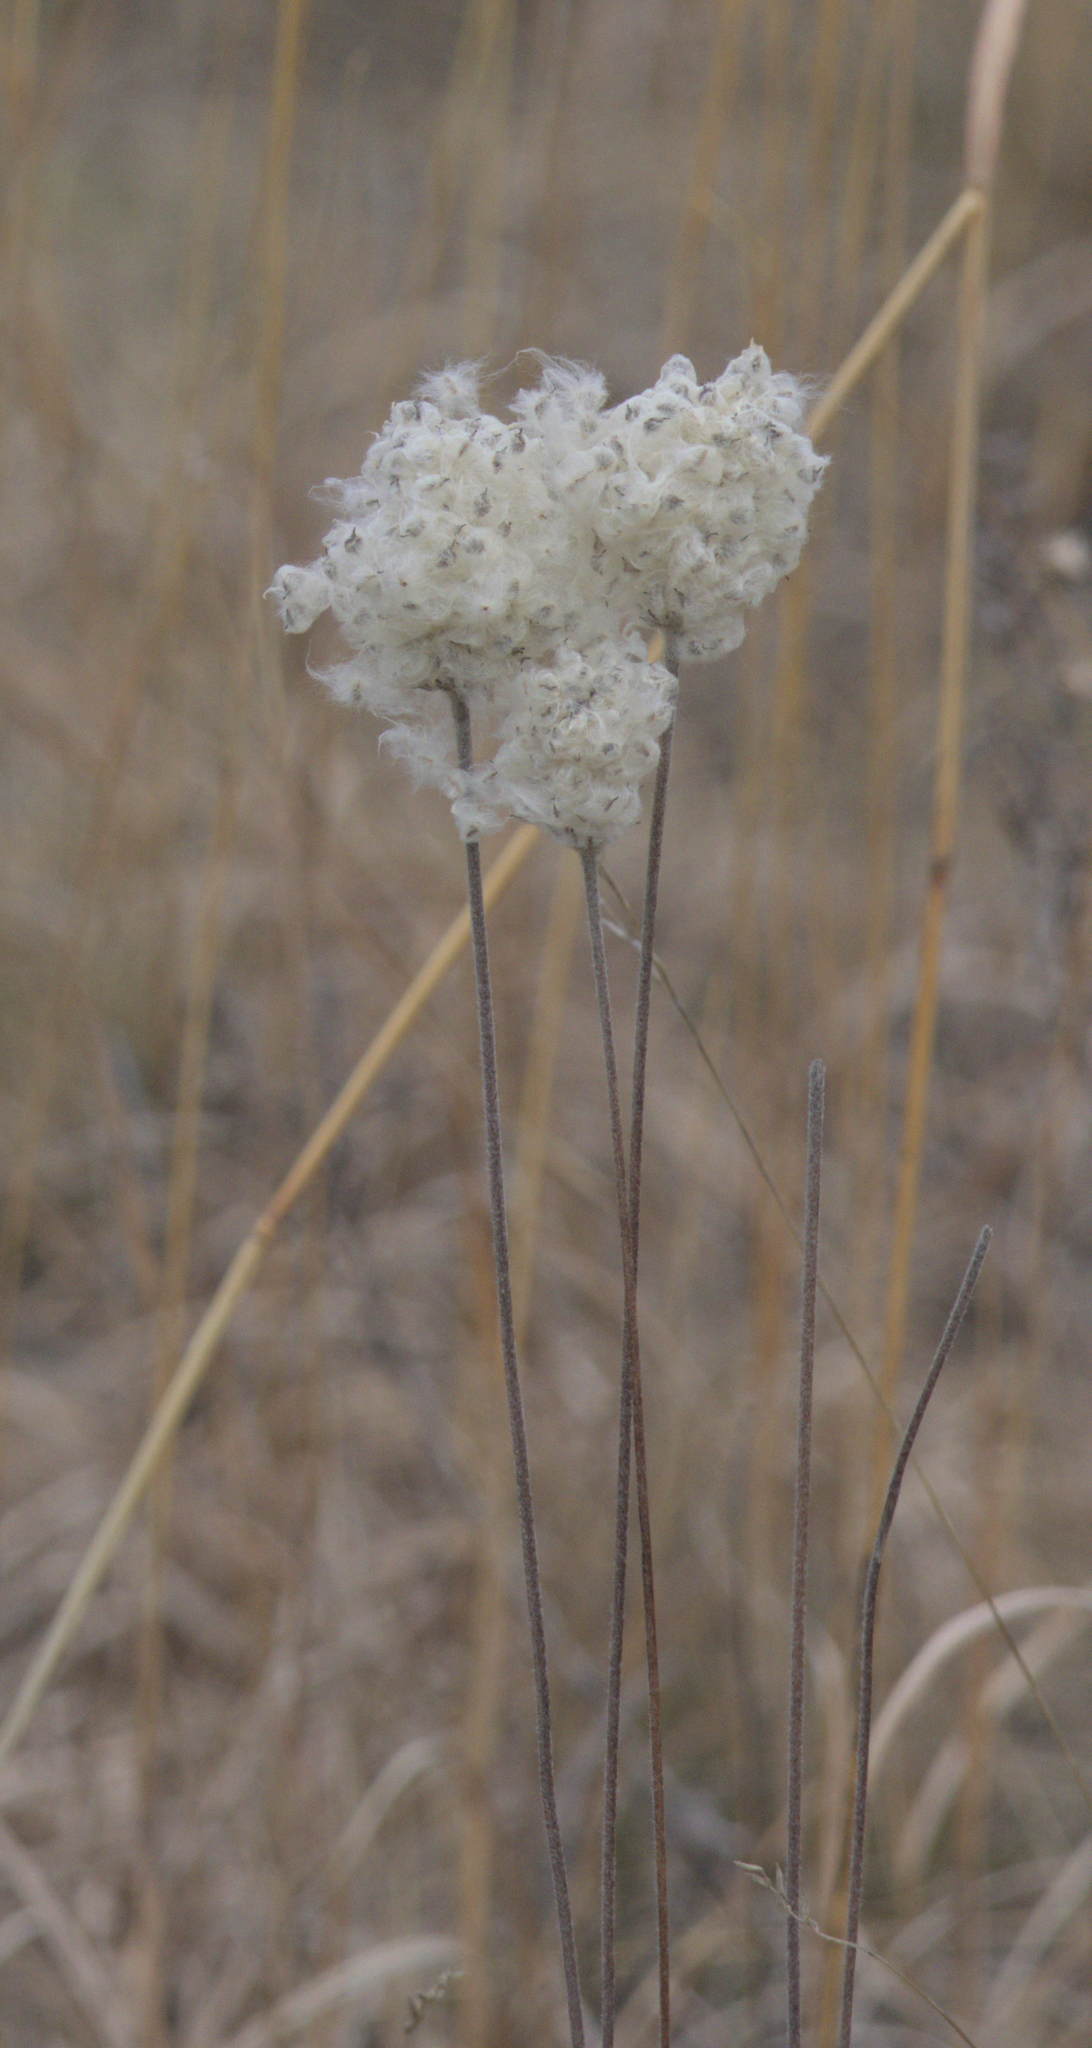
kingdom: Plantae
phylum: Tracheophyta
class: Magnoliopsida
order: Ranunculales
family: Ranunculaceae
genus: Anemone
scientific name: Anemone cylindrica
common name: Candle anemone
